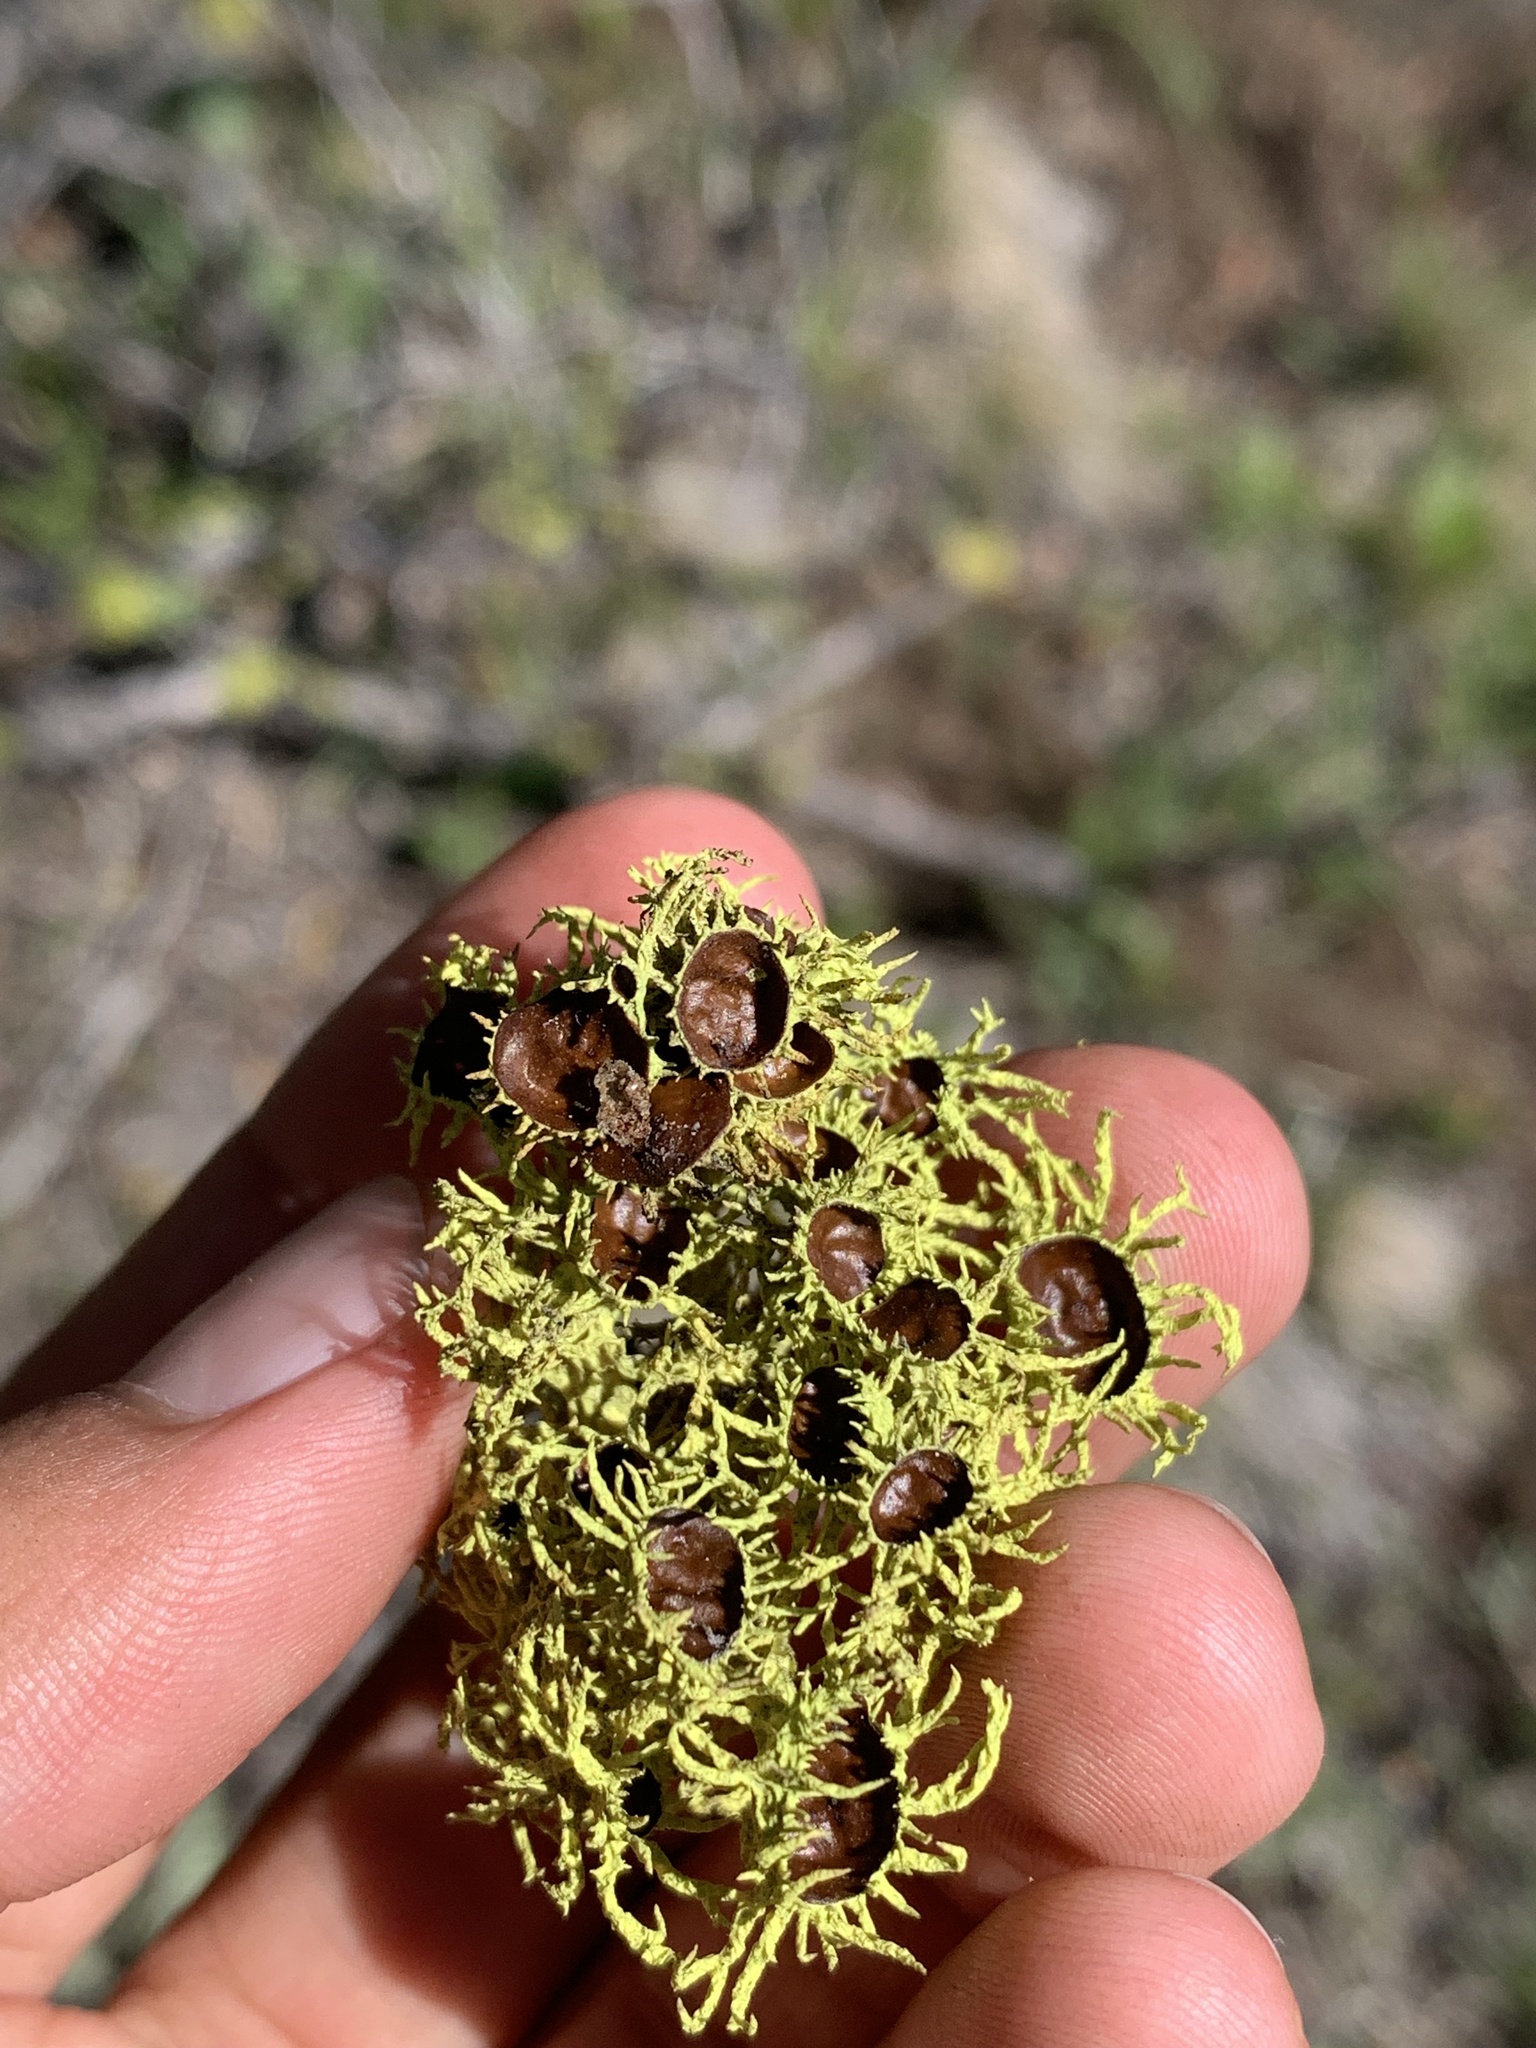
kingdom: Fungi
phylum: Ascomycota
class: Lecanoromycetes
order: Lecanorales
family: Parmeliaceae
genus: Letharia
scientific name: Letharia columbiana
